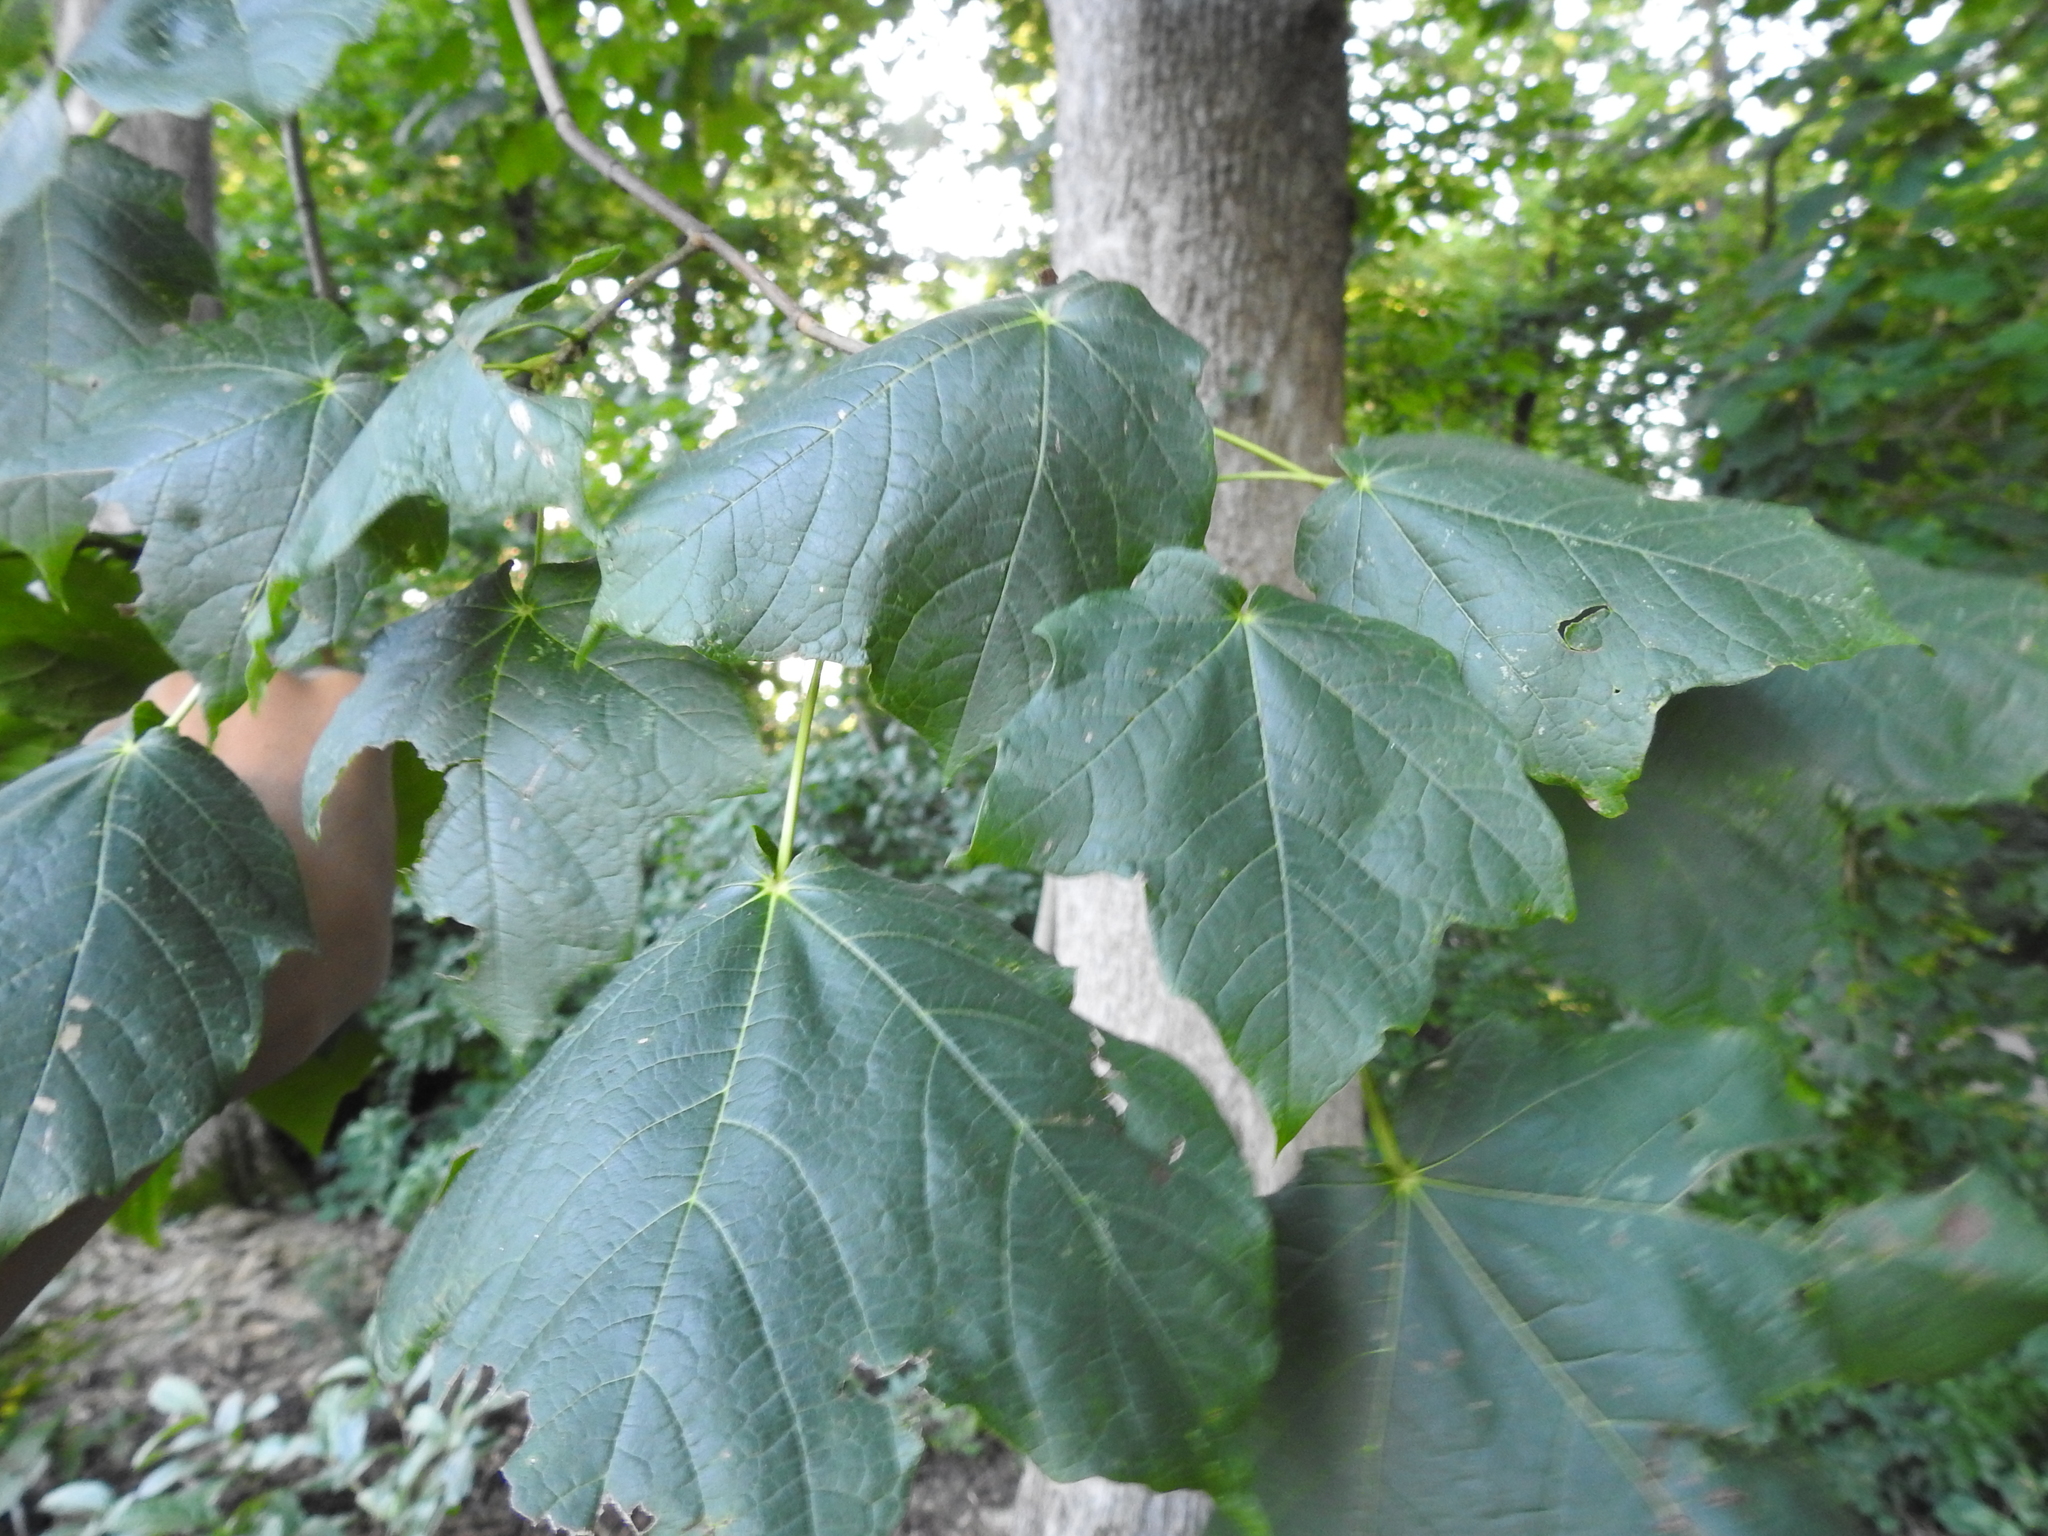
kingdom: Plantae
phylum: Tracheophyta
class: Magnoliopsida
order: Sapindales
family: Sapindaceae
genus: Acer
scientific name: Acer nigrum
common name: Black maple
